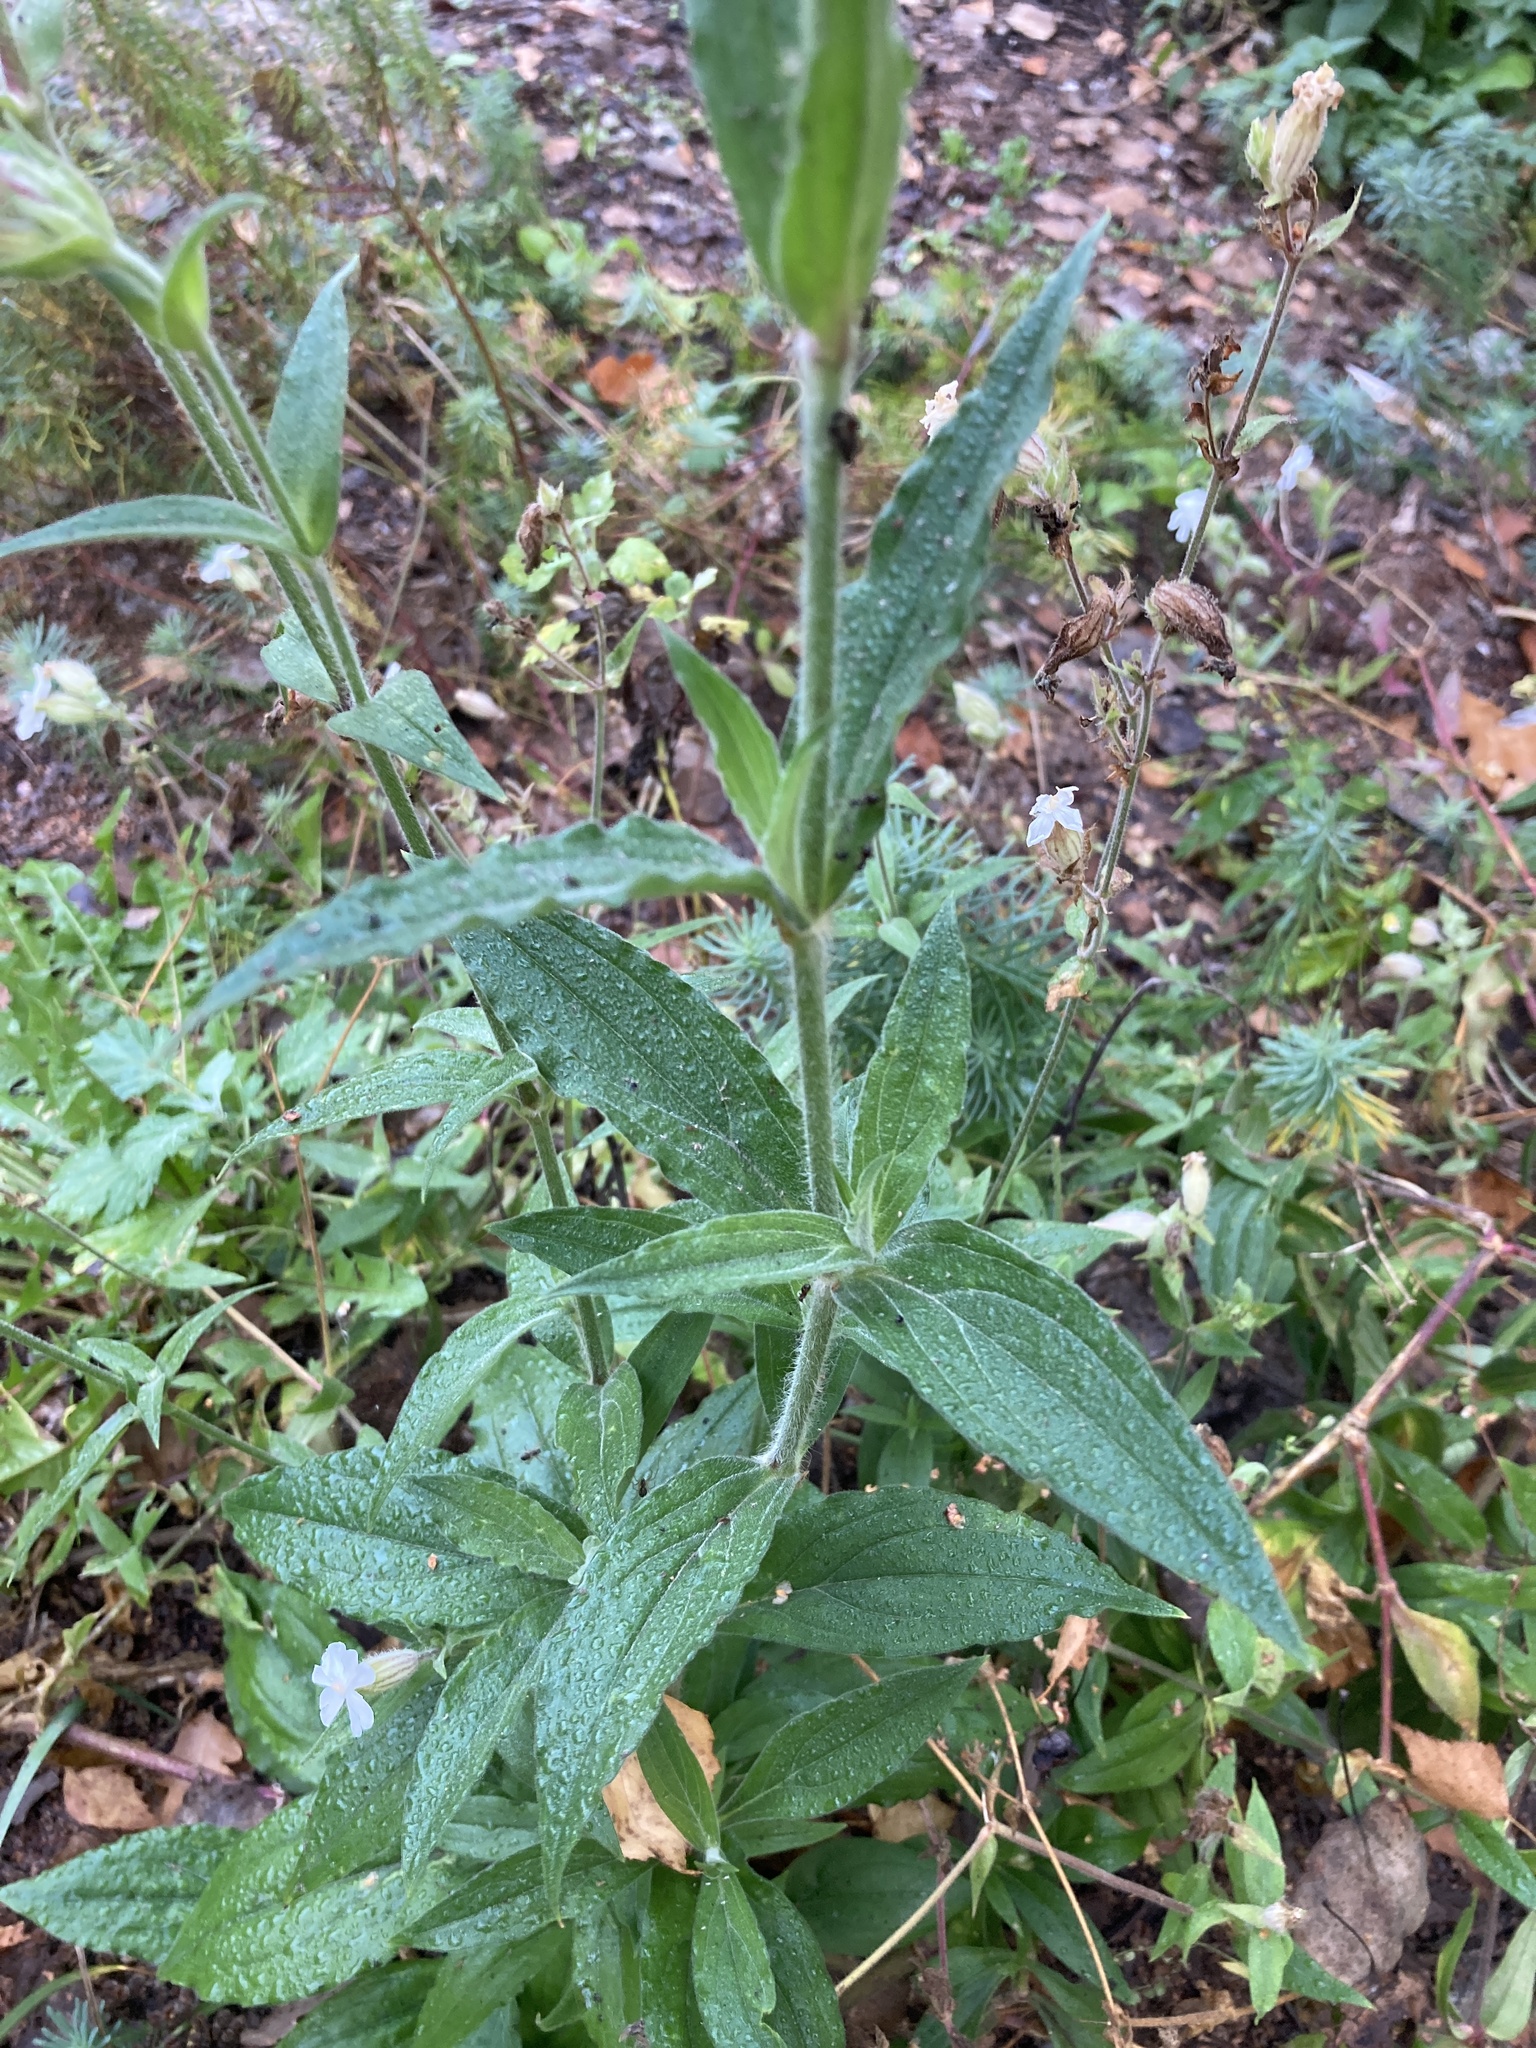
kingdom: Plantae
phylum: Tracheophyta
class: Magnoliopsida
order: Caryophyllales
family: Caryophyllaceae
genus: Silene
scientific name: Silene latifolia
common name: White campion
